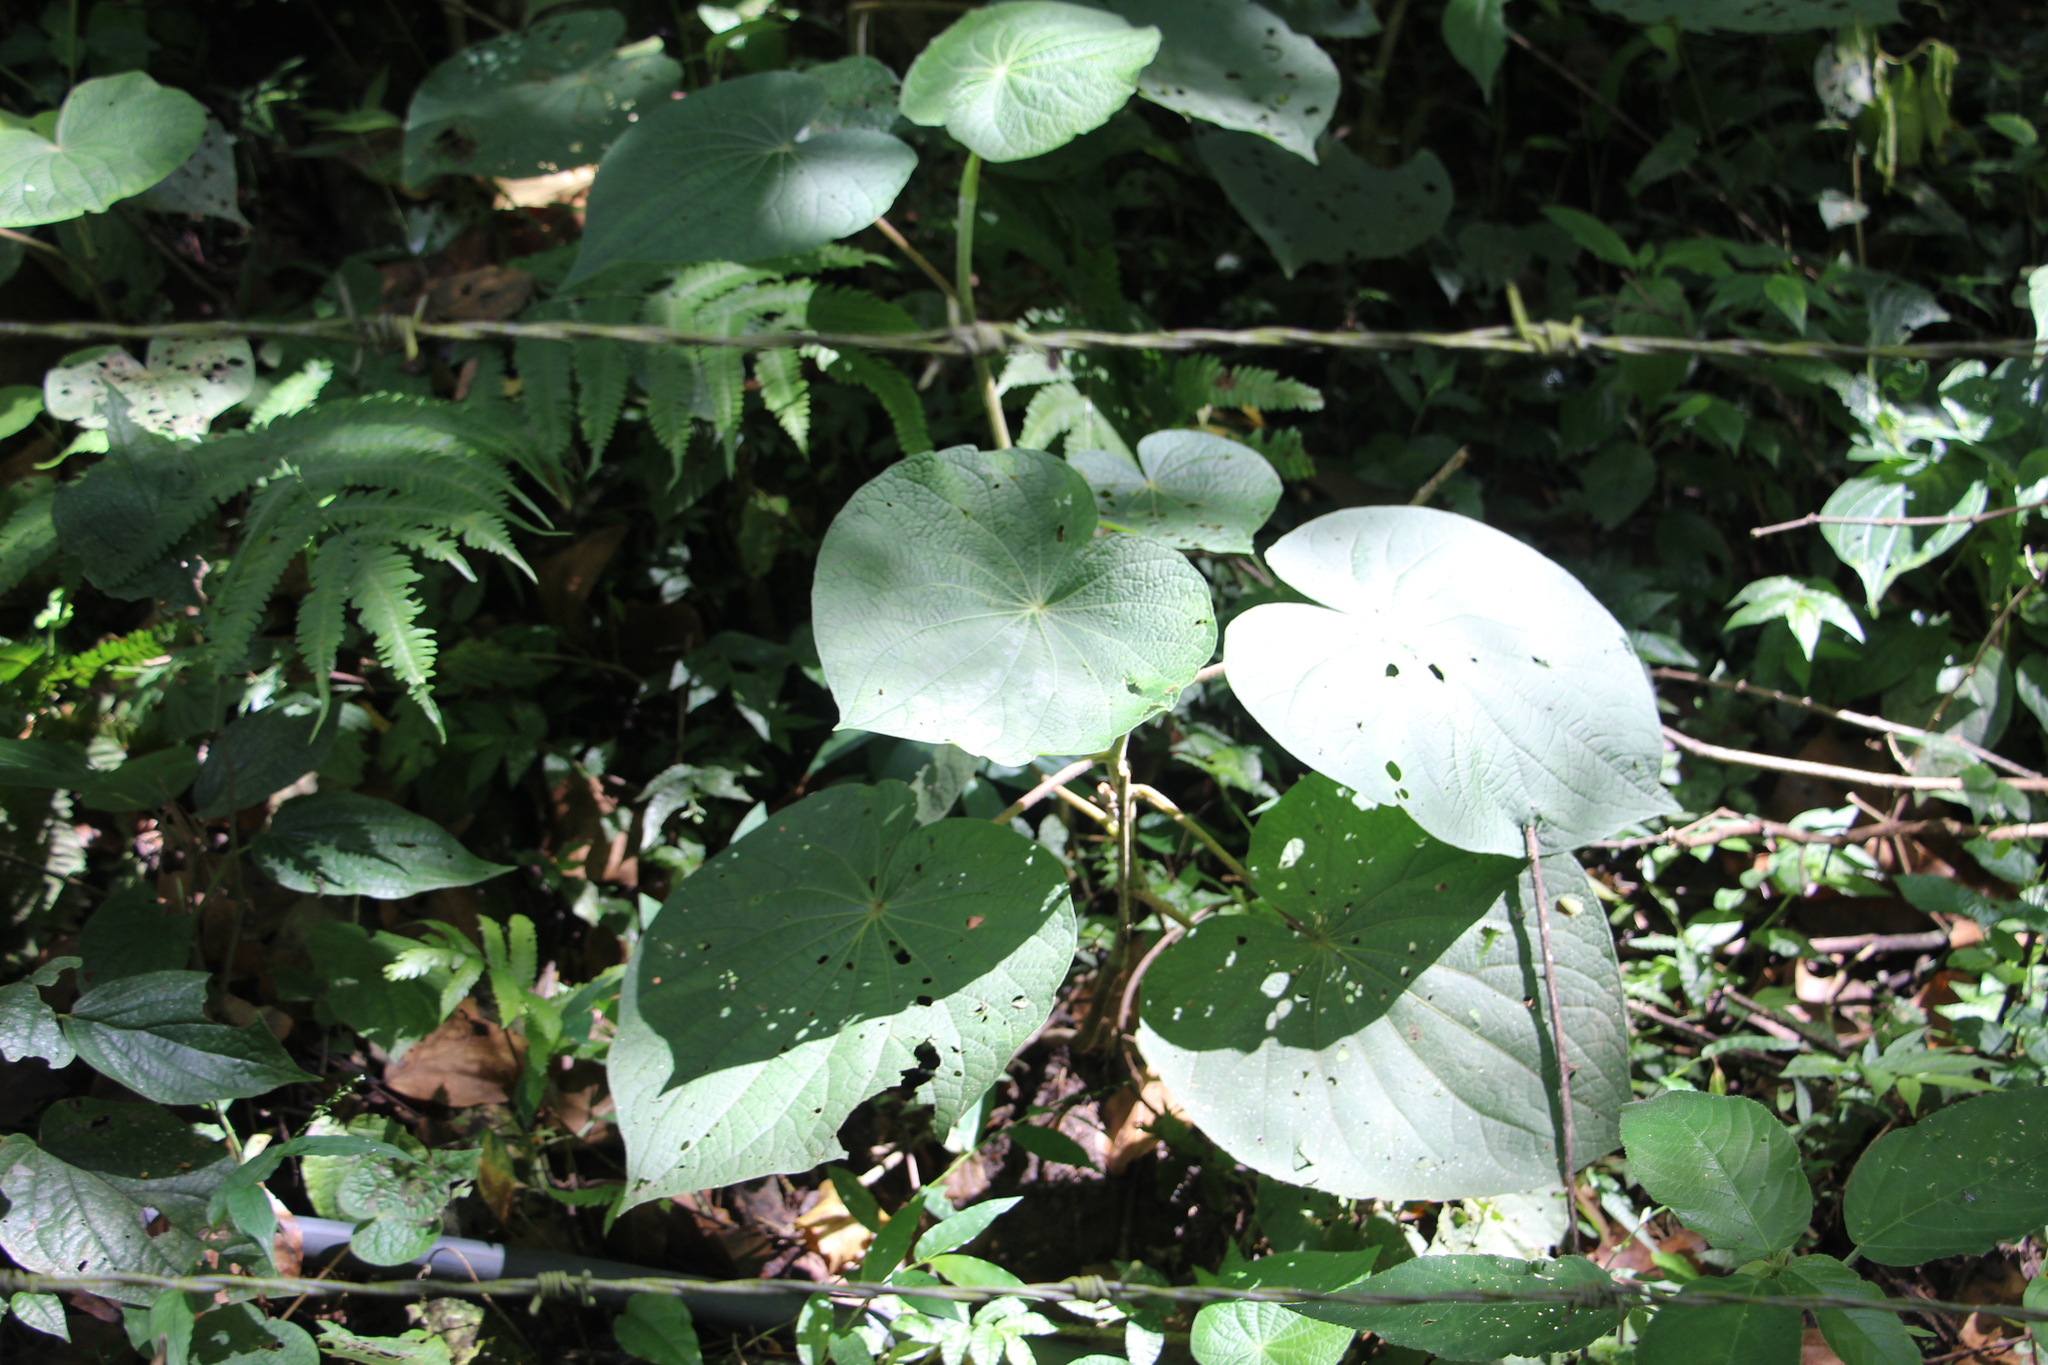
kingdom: Plantae
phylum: Tracheophyta
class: Magnoliopsida
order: Piperales
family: Piperaceae
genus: Piper
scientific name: Piper umbellatum
